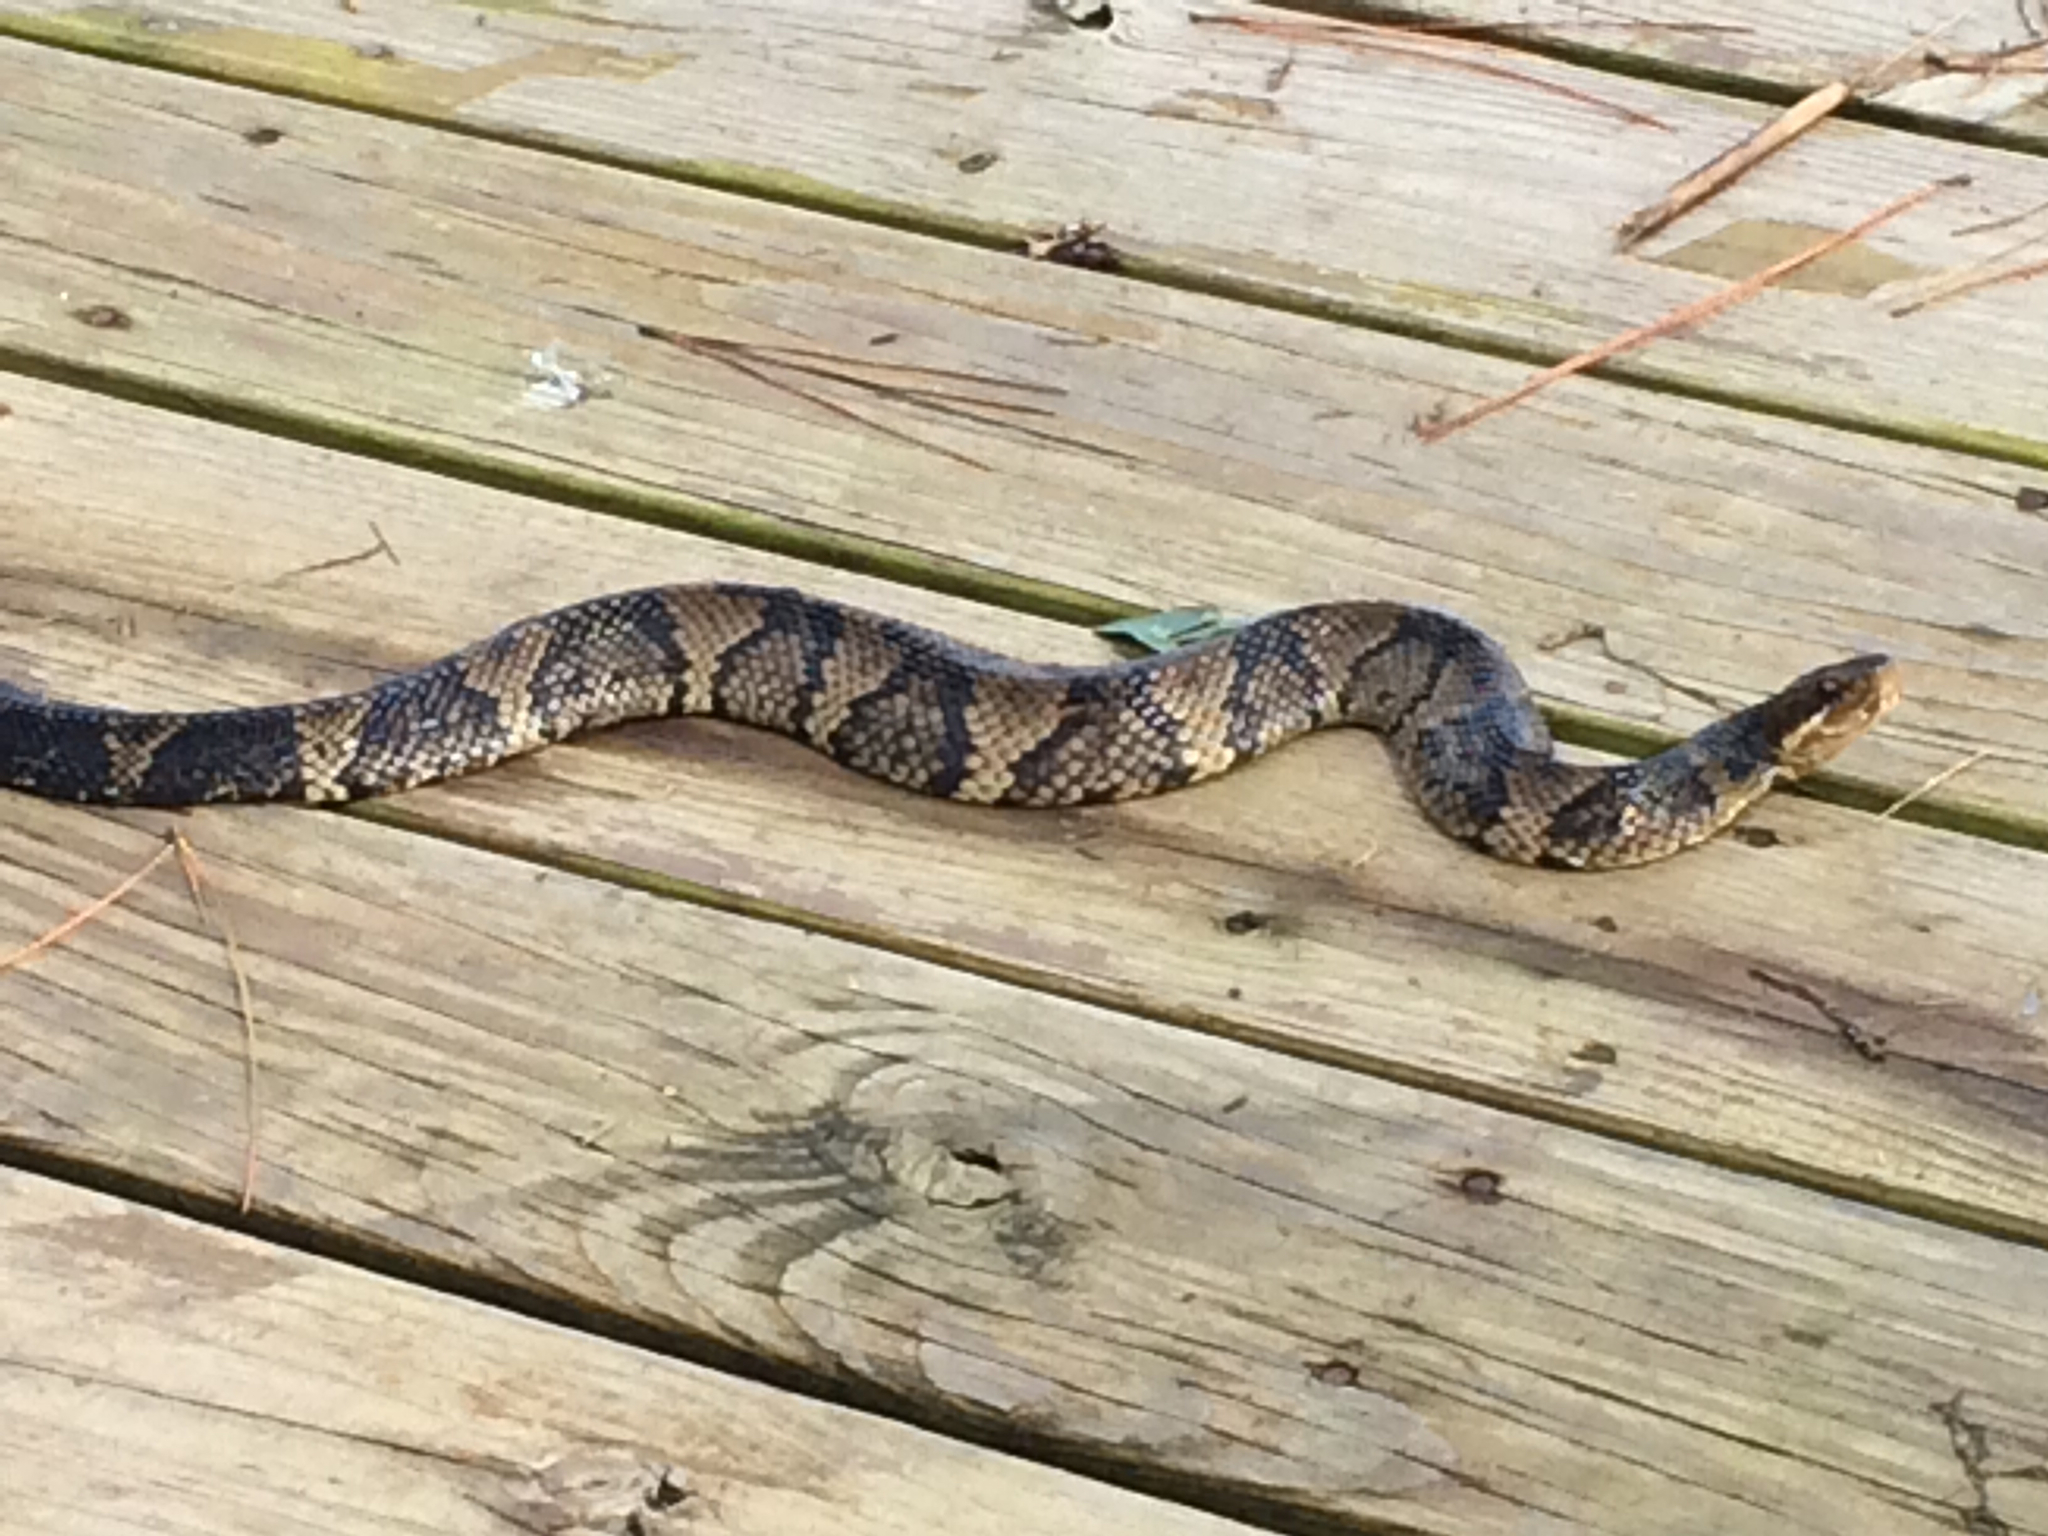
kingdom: Animalia
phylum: Chordata
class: Squamata
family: Viperidae
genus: Agkistrodon
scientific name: Agkistrodon piscivorus
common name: Cottonmouth
